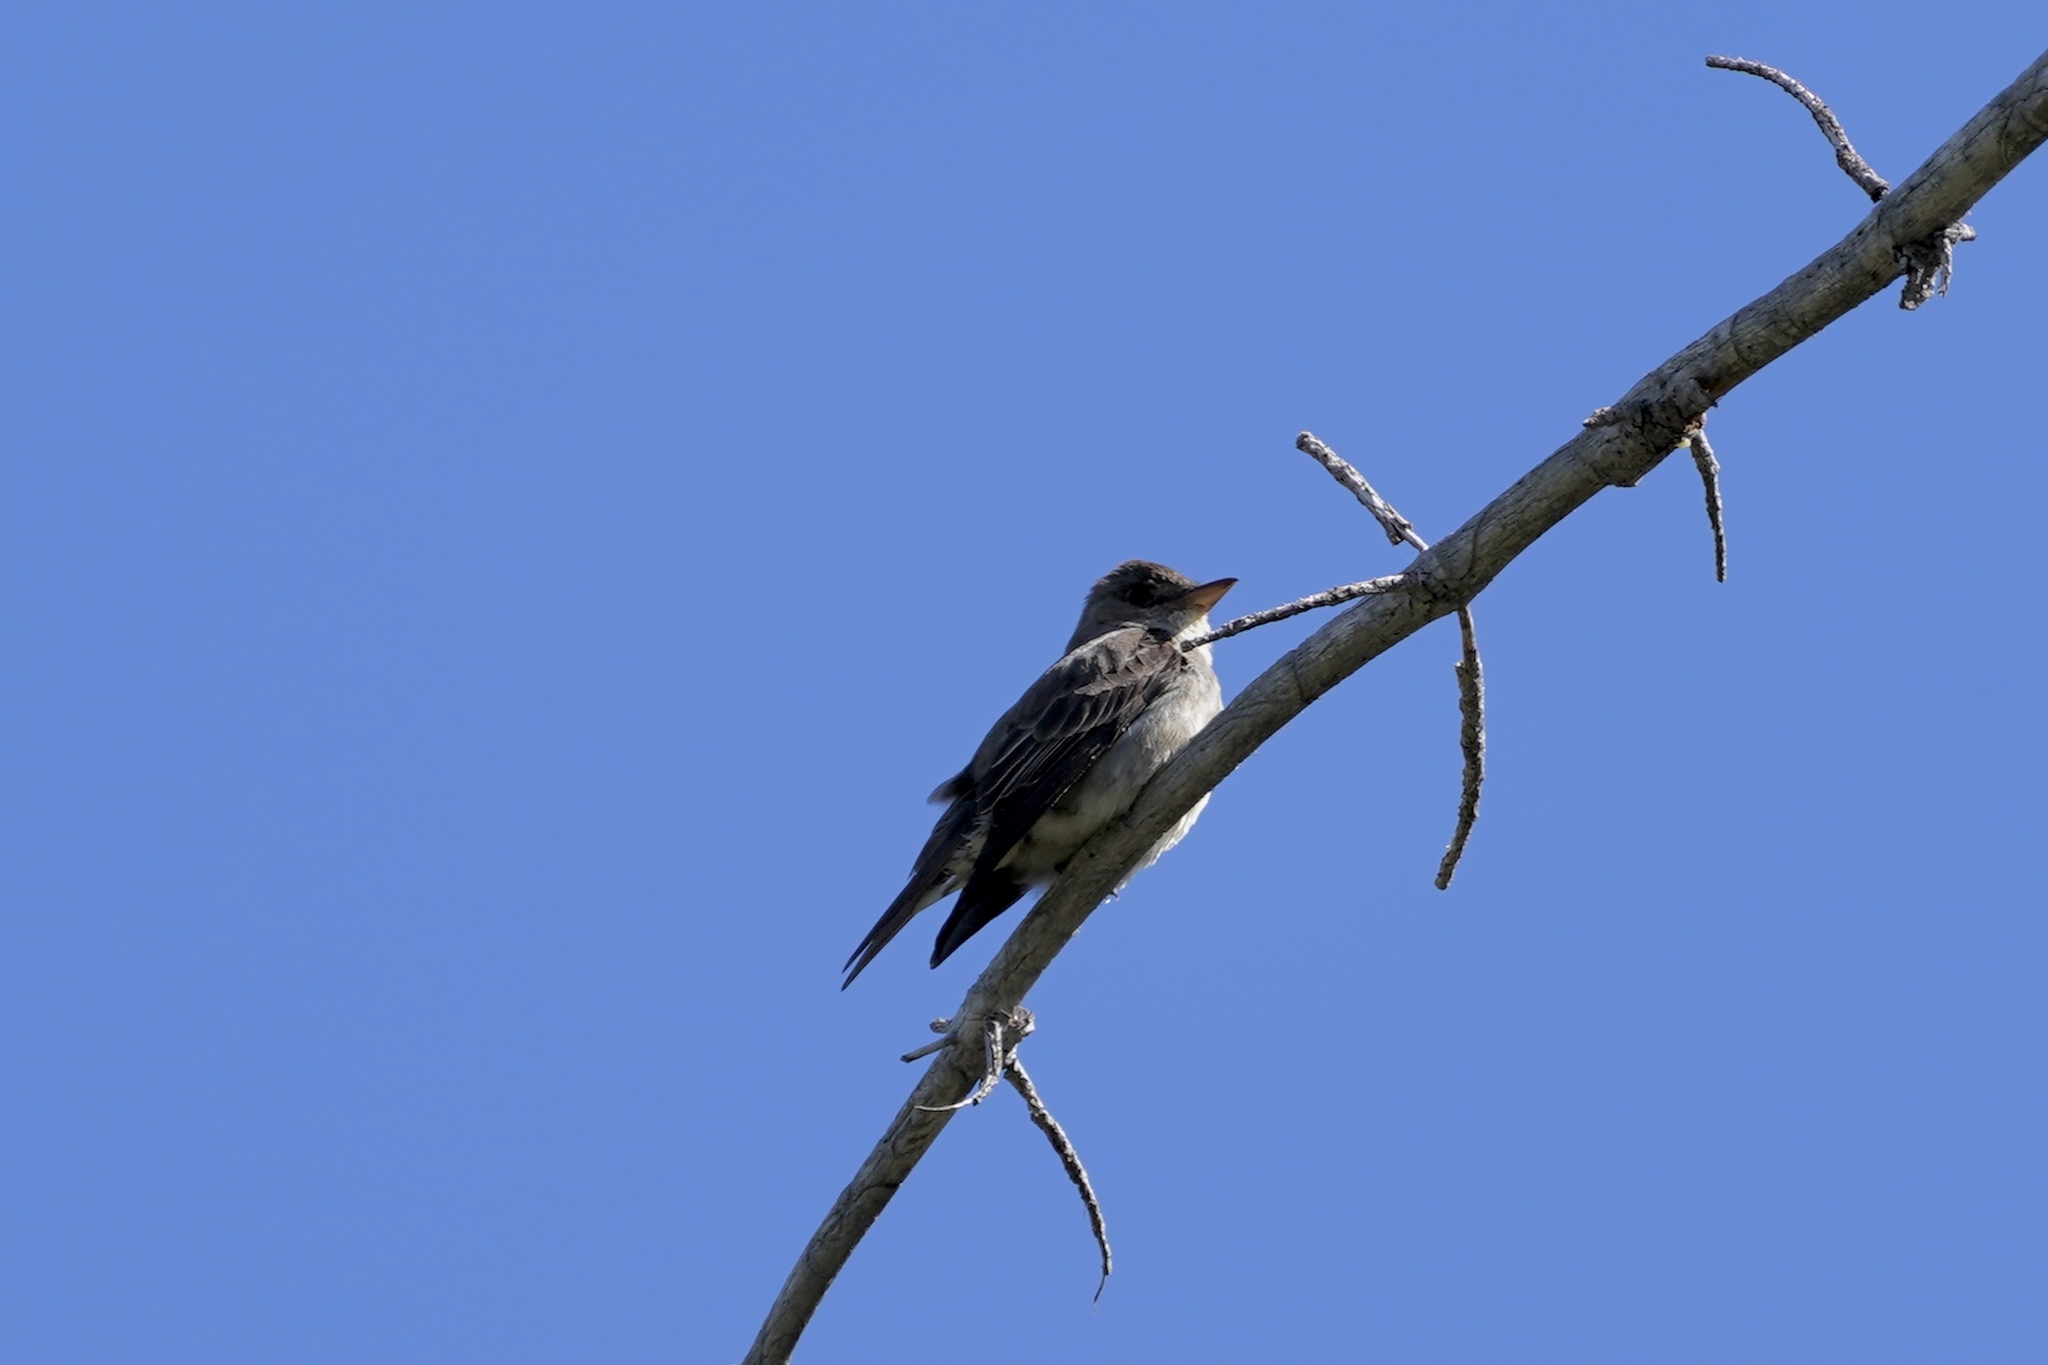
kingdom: Animalia
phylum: Chordata
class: Aves
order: Passeriformes
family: Tyrannidae
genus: Contopus
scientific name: Contopus sordidulus
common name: Western wood-pewee
